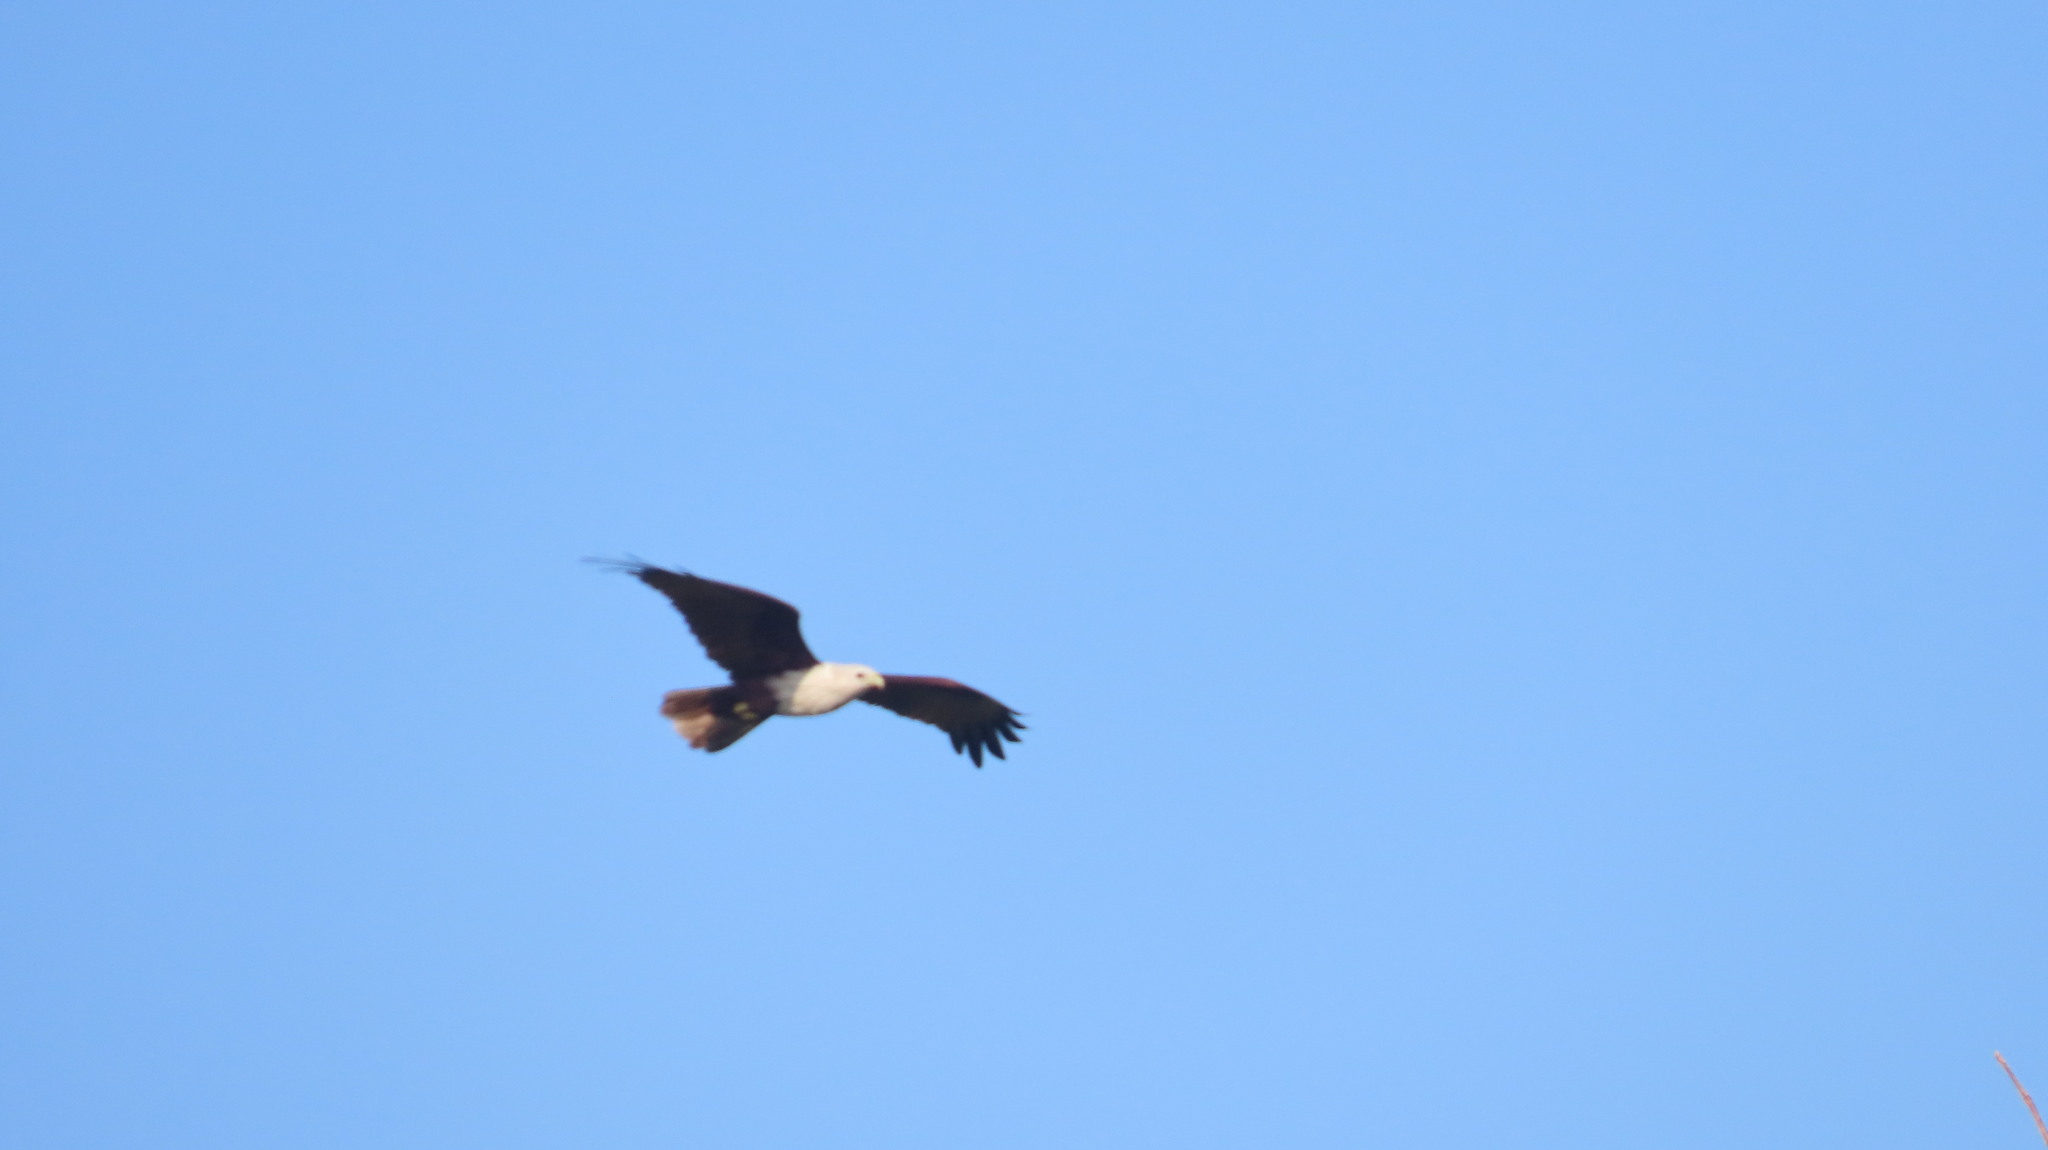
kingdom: Animalia
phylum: Chordata
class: Aves
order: Accipitriformes
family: Accipitridae
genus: Haliastur
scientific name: Haliastur indus
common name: Brahminy kite
